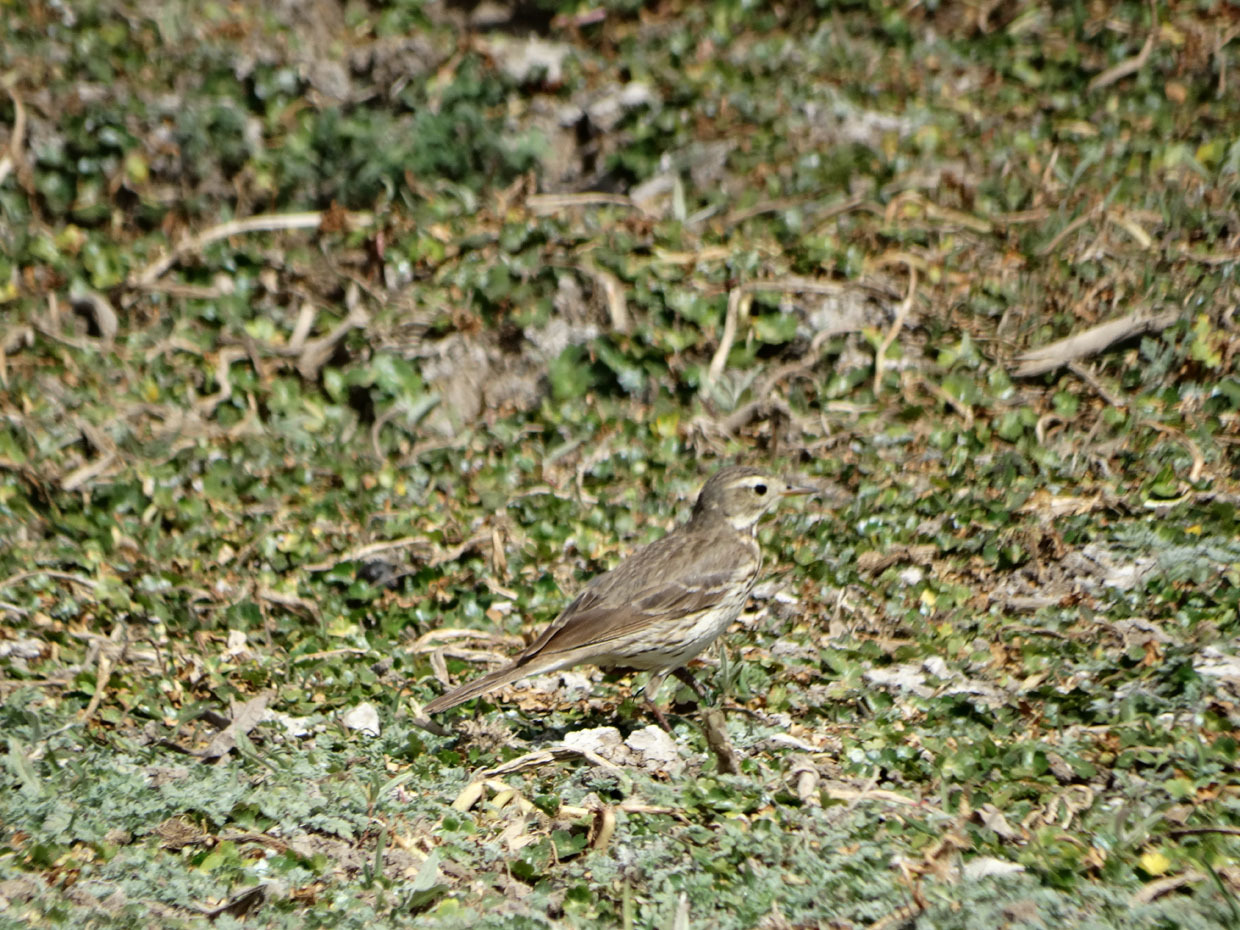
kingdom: Animalia
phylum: Chordata
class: Aves
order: Passeriformes
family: Motacillidae
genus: Anthus
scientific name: Anthus rubescens
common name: Buff-bellied pipit
